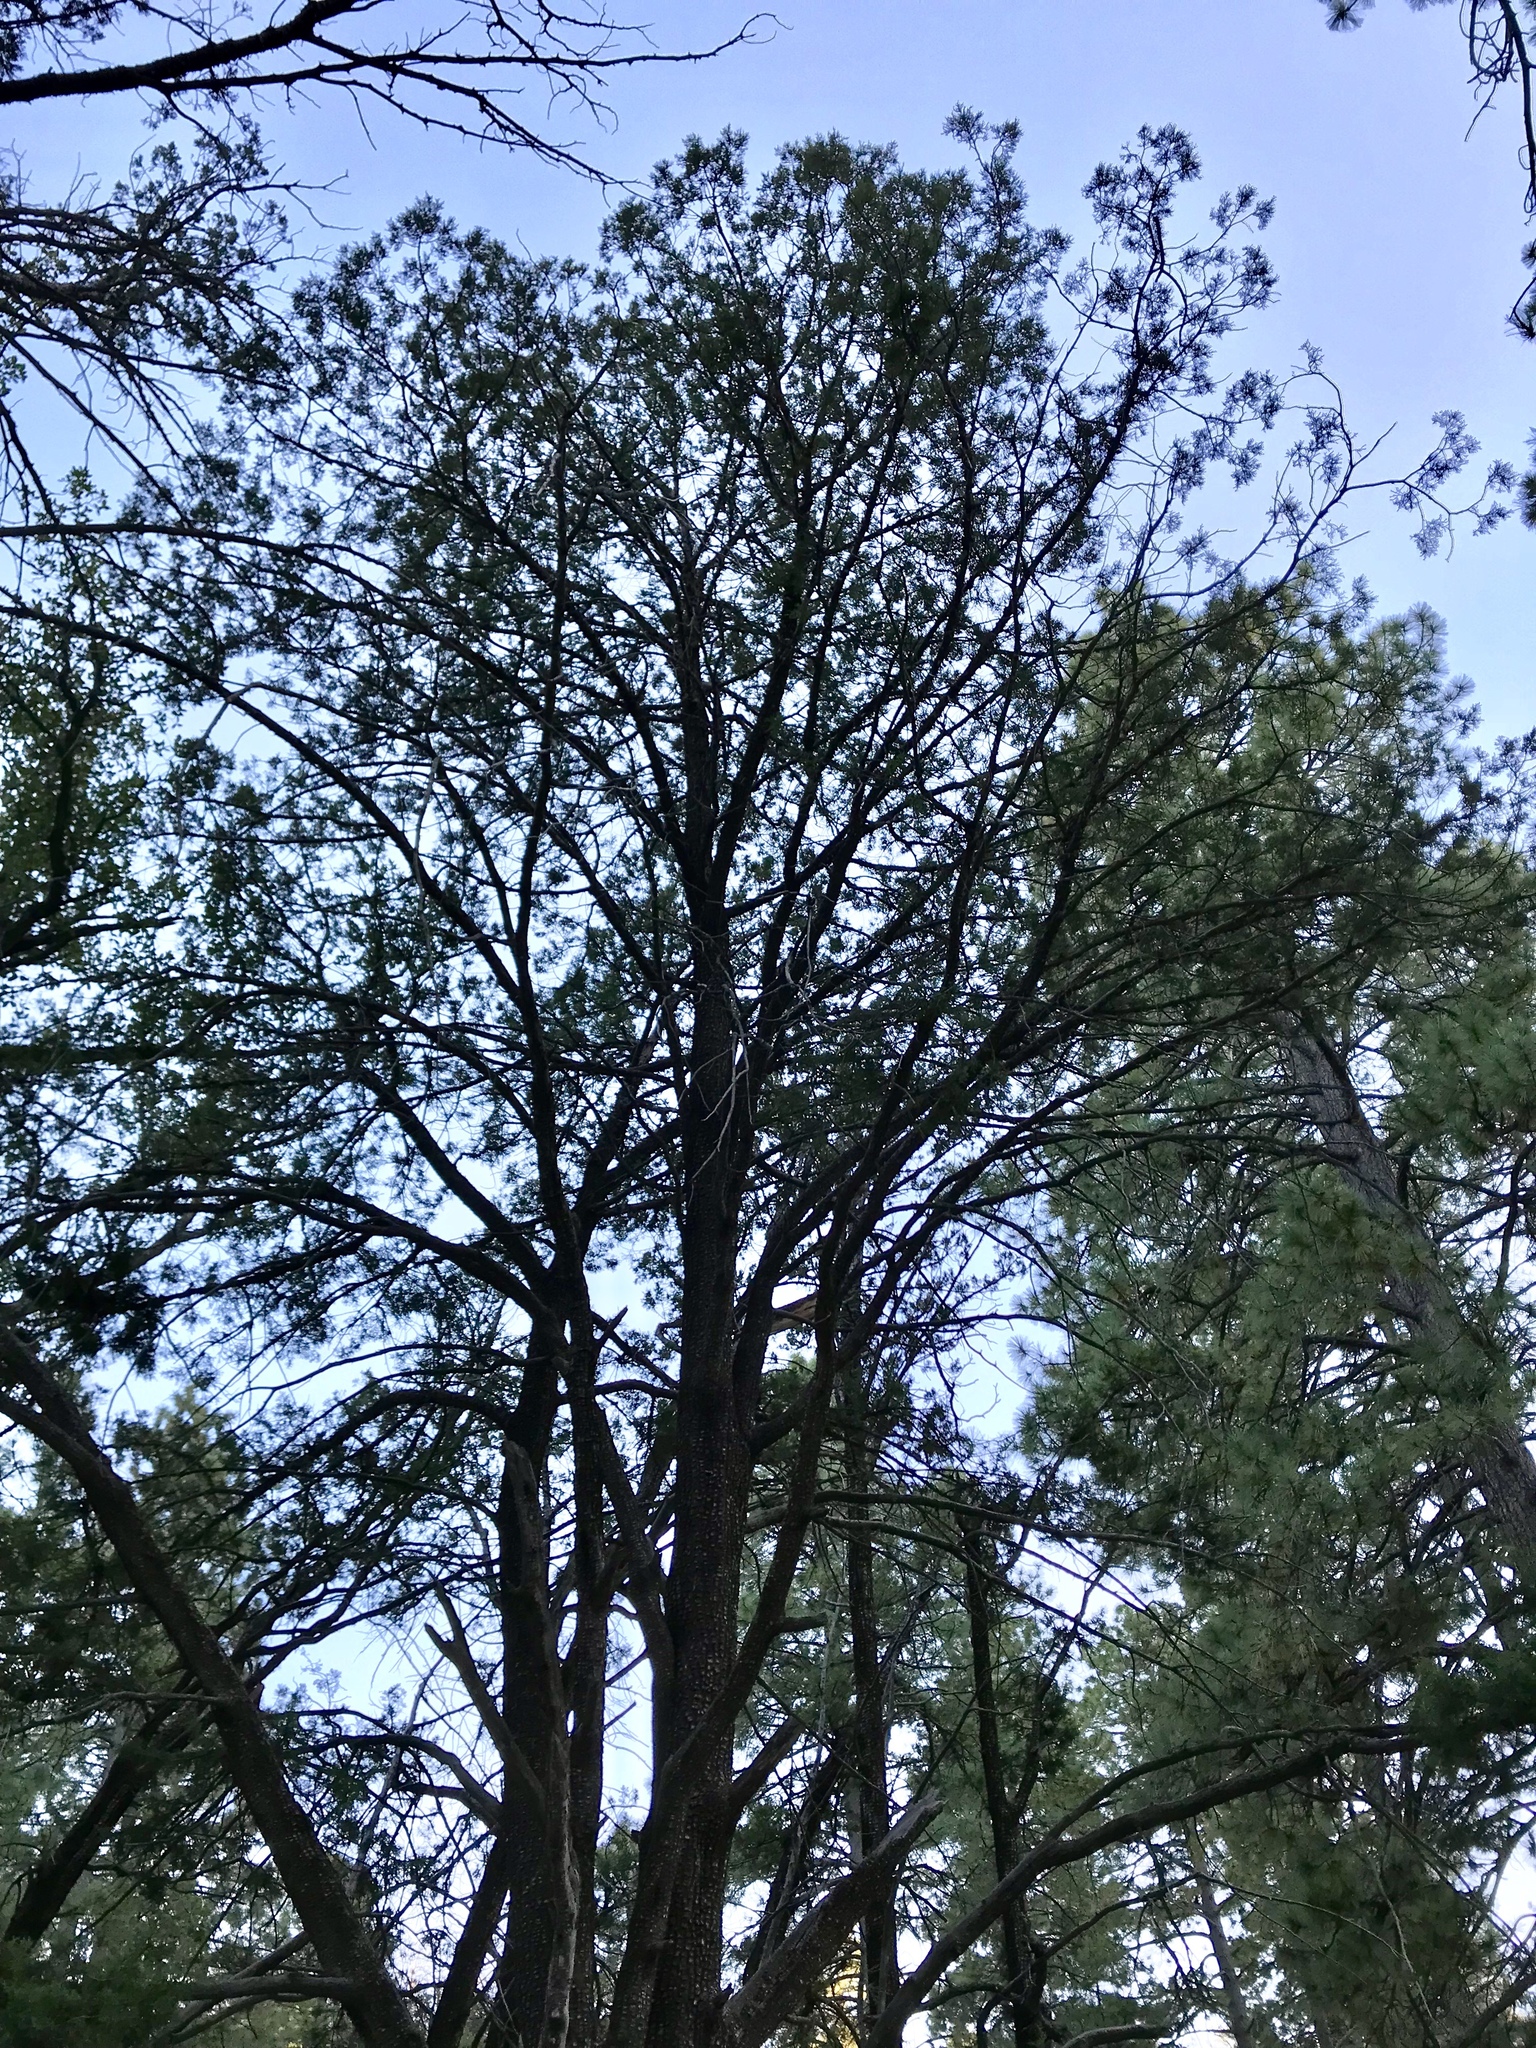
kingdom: Plantae
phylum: Tracheophyta
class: Pinopsida
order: Pinales
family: Cupressaceae
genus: Juniperus
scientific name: Juniperus deppeana
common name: Alligator juniper
